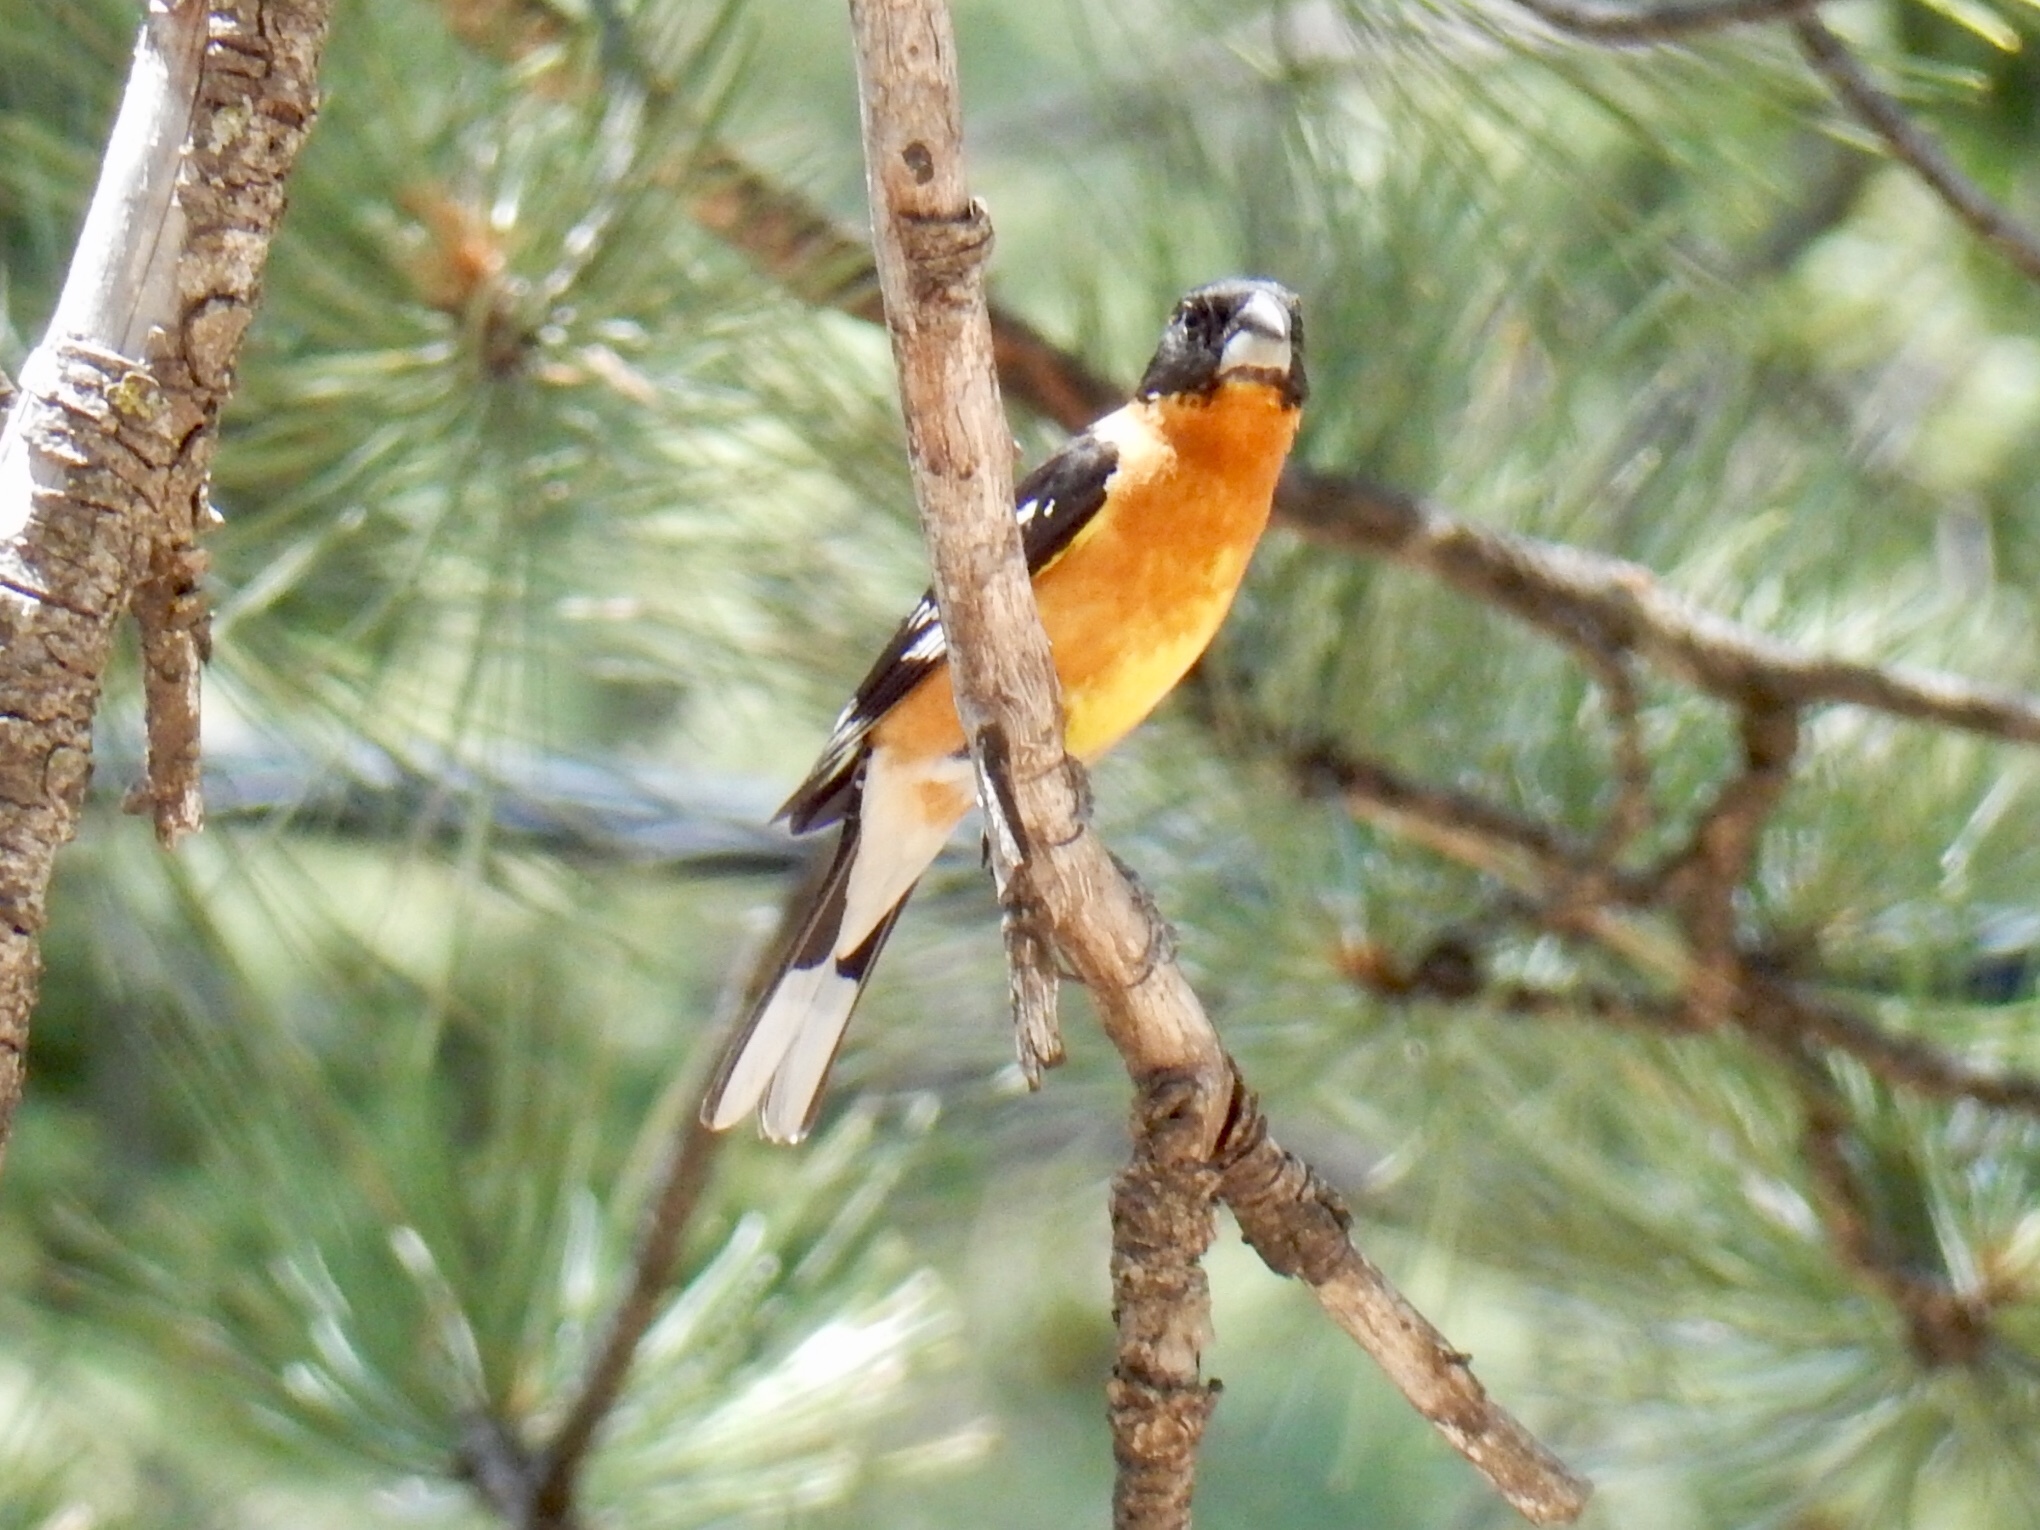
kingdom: Animalia
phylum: Chordata
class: Aves
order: Passeriformes
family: Cardinalidae
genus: Pheucticus
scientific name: Pheucticus melanocephalus
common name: Black-headed grosbeak
